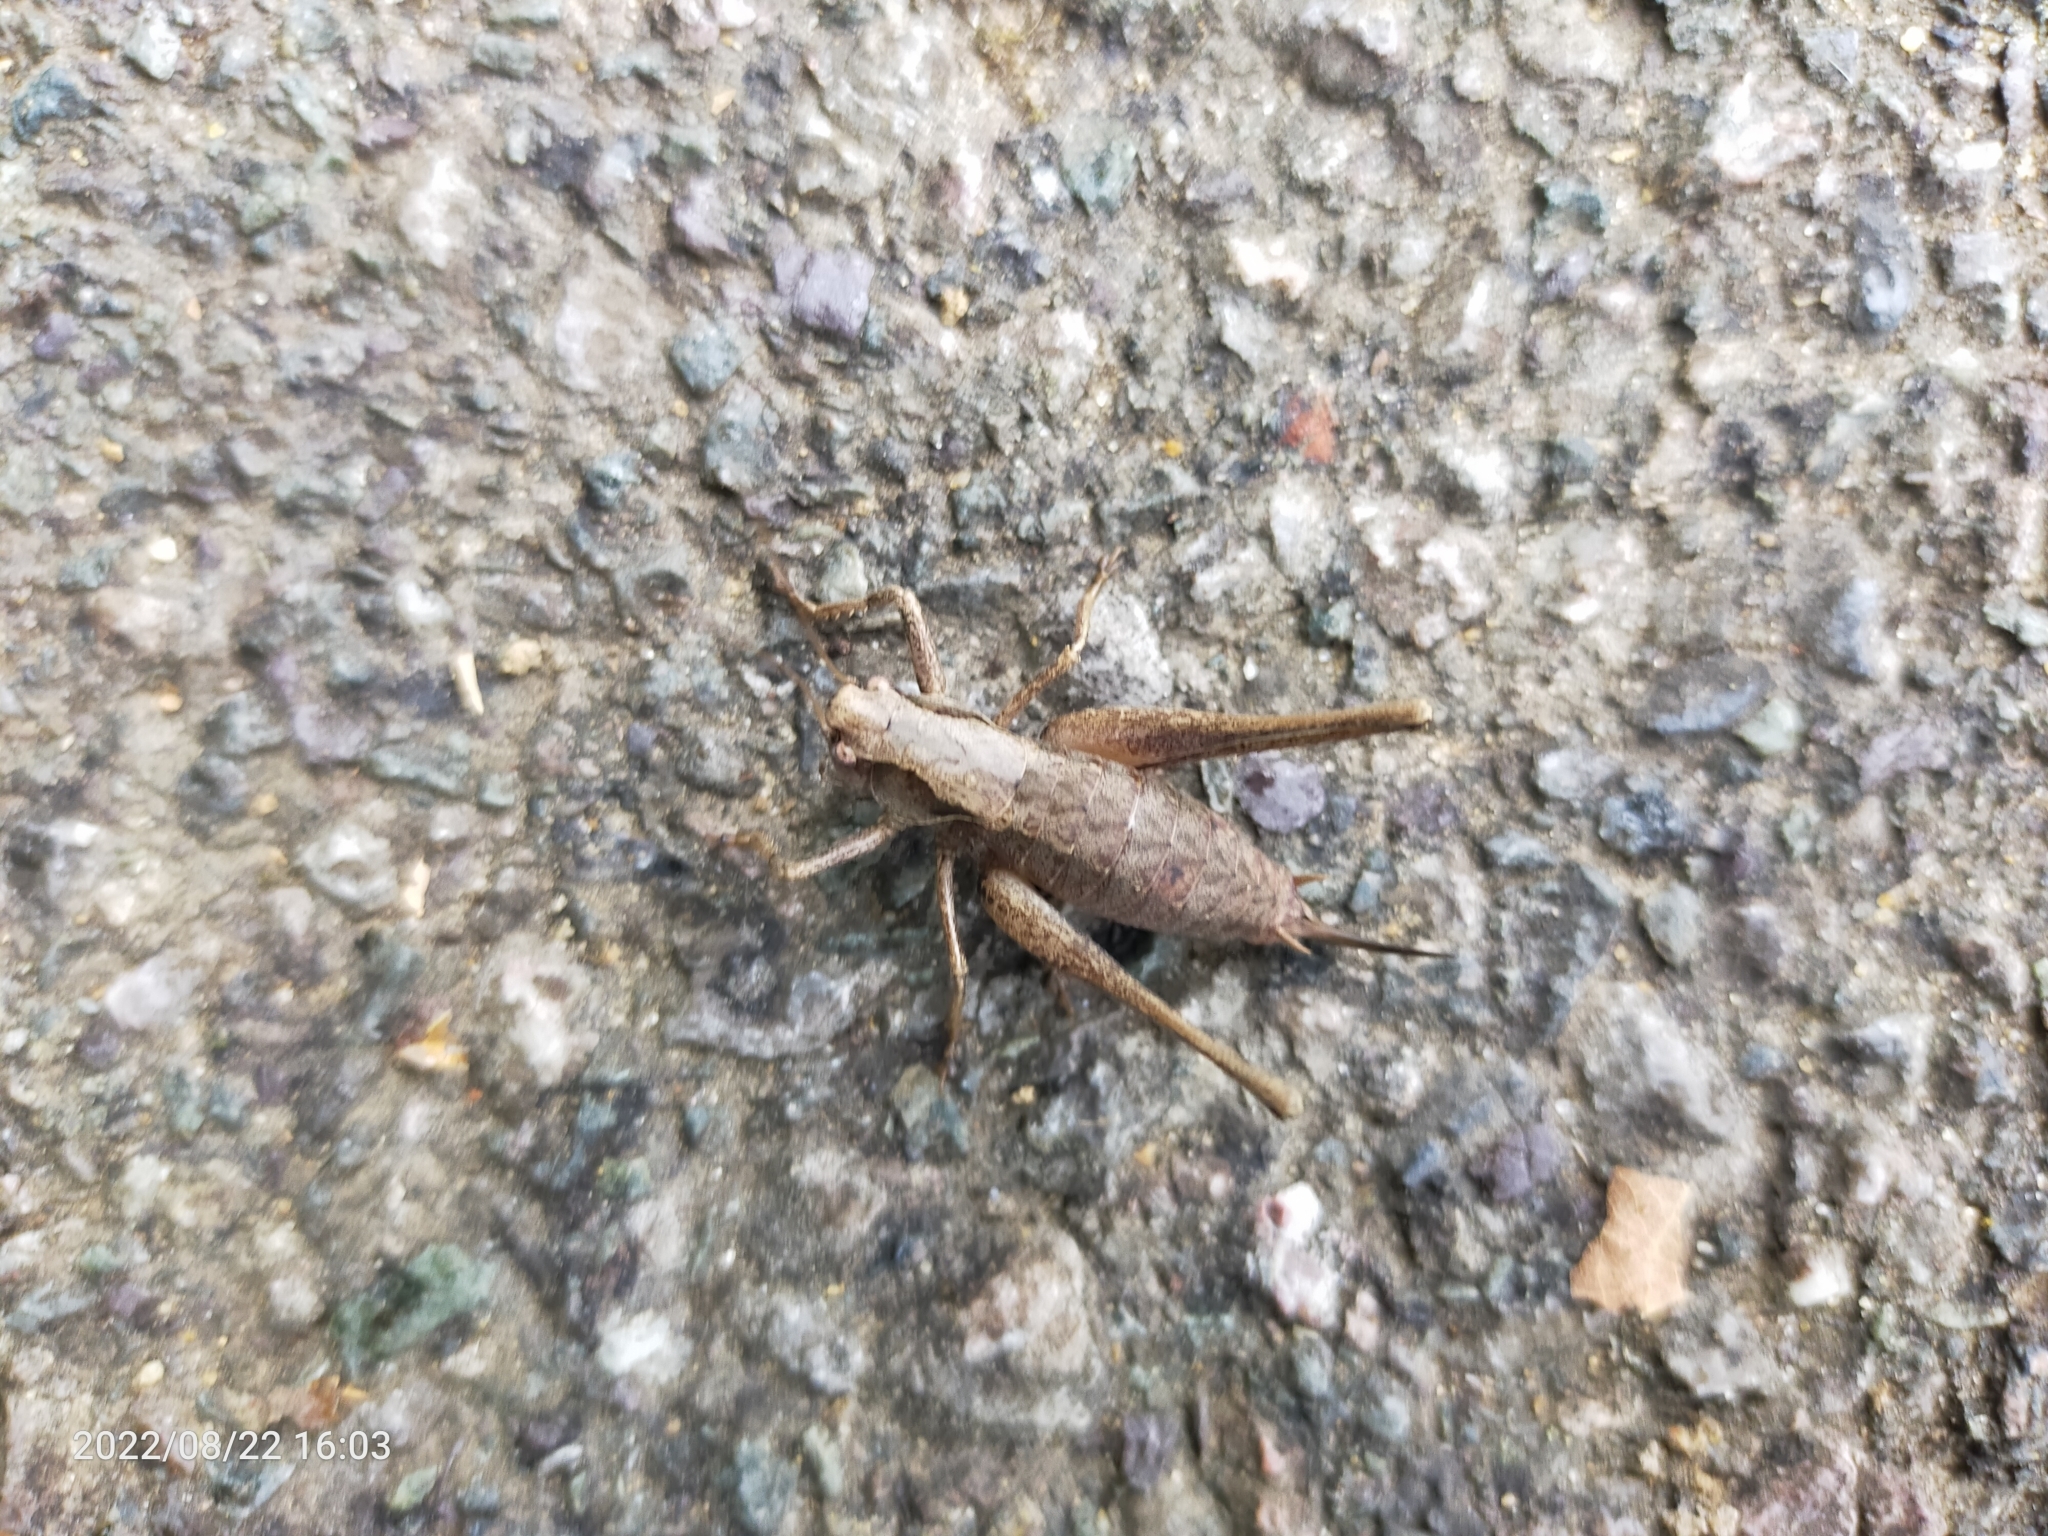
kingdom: Animalia
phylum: Arthropoda
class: Insecta
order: Orthoptera
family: Tettigoniidae
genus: Pholidoptera
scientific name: Pholidoptera griseoaptera
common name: Dark bush-cricket
